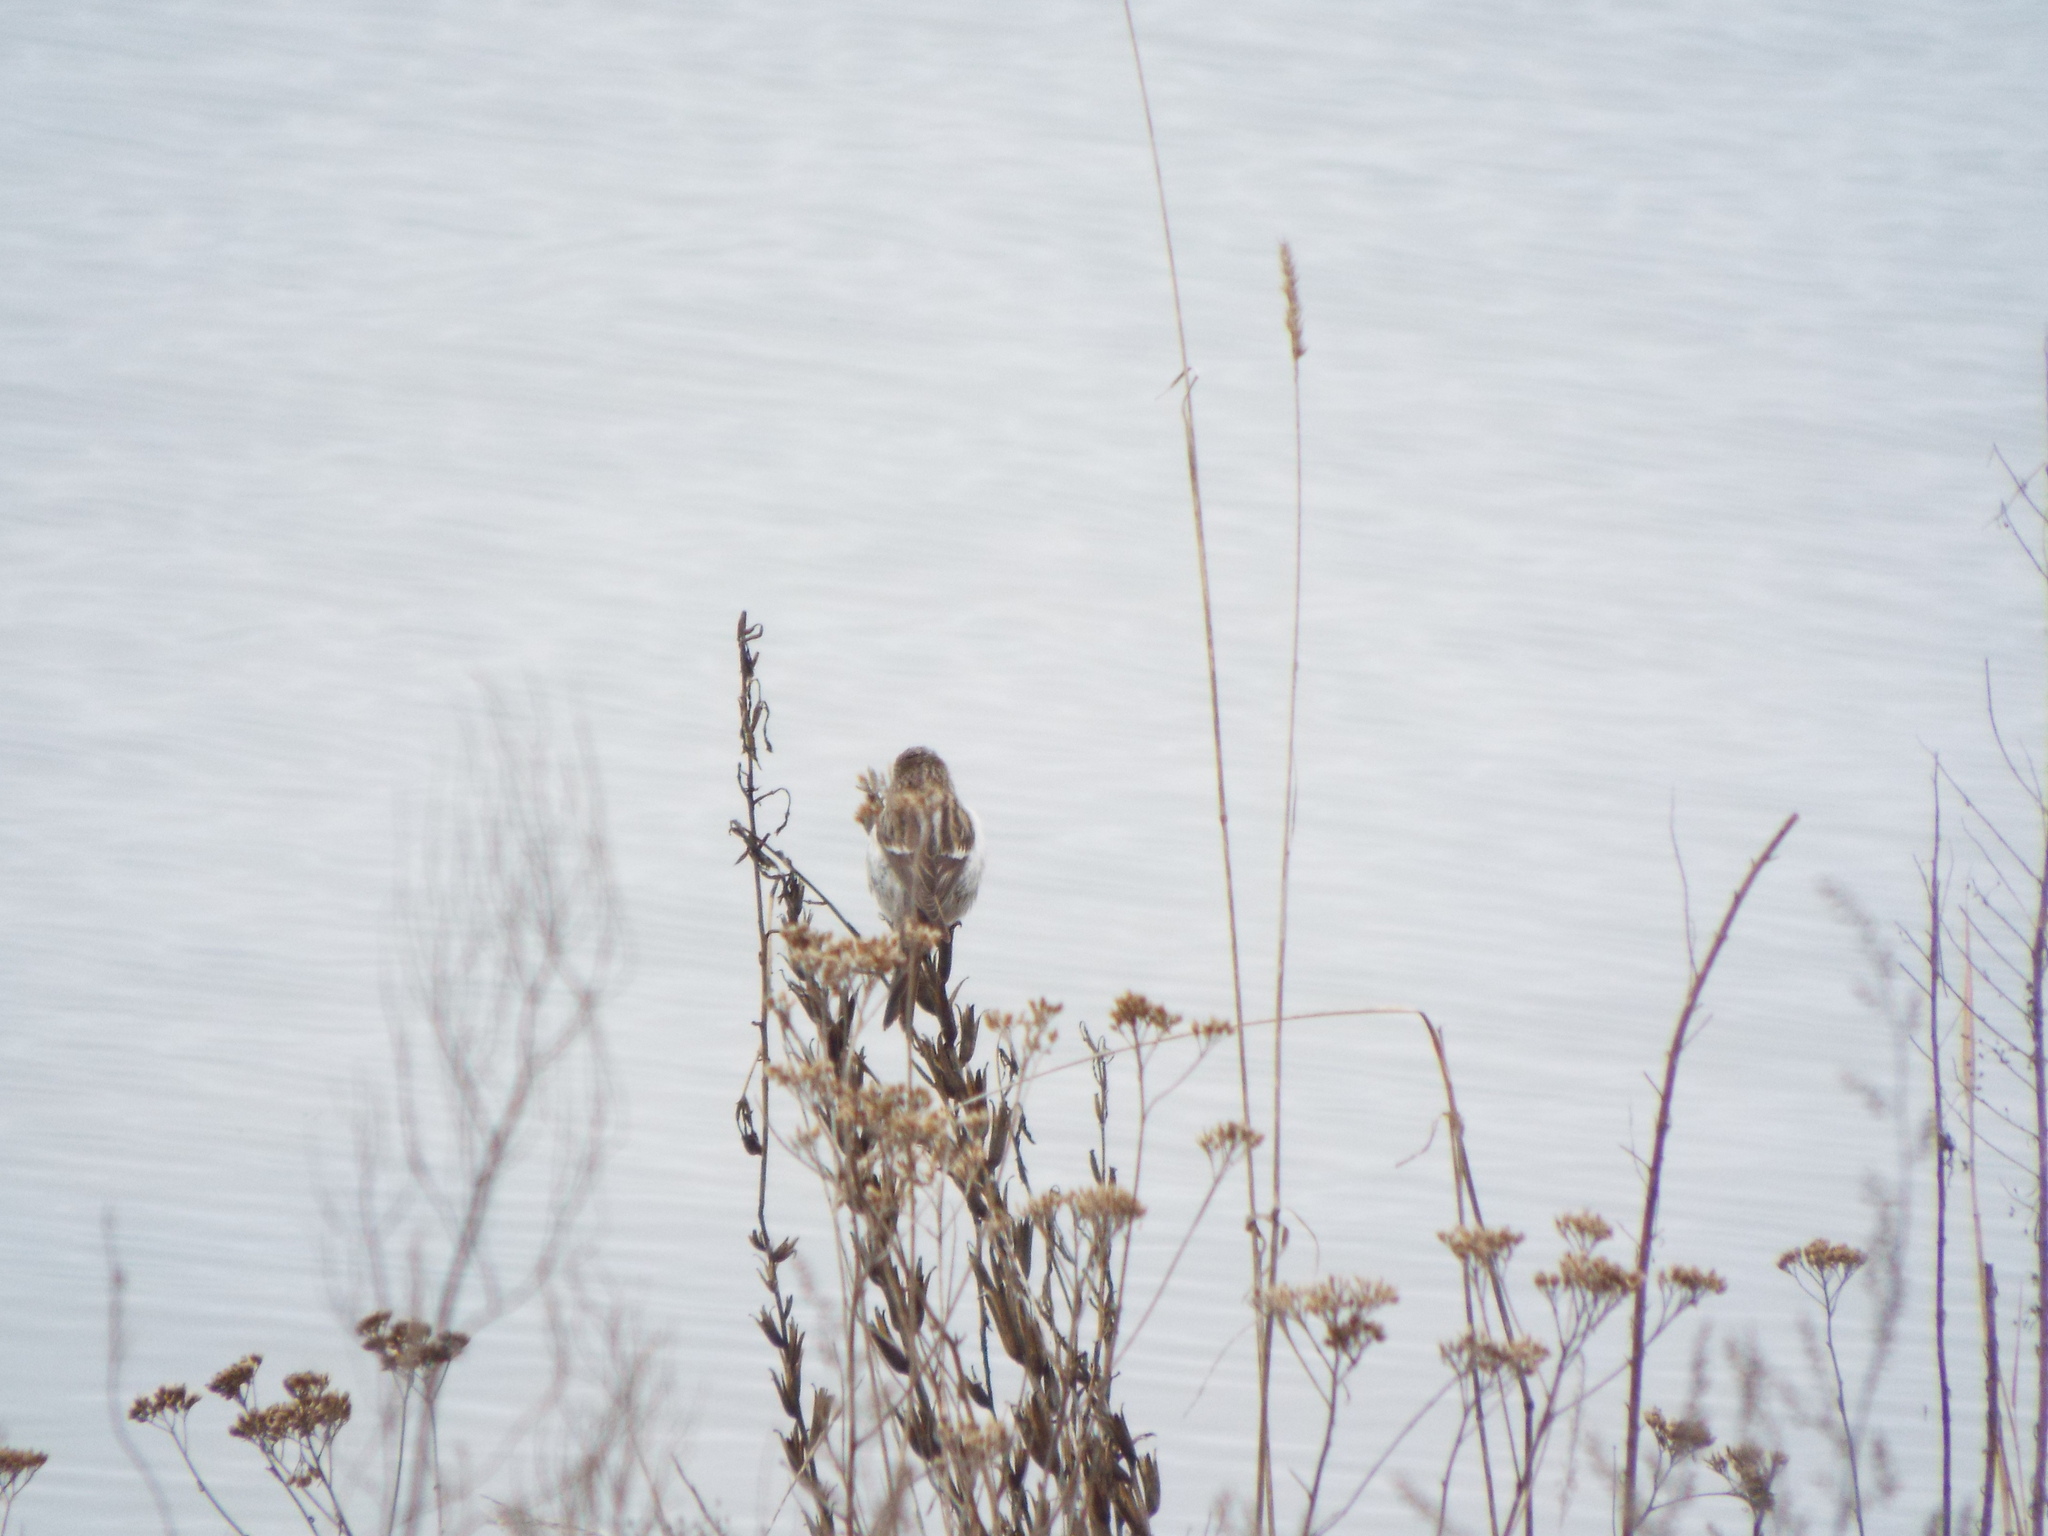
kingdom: Animalia
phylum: Chordata
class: Aves
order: Passeriformes
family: Fringillidae
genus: Acanthis
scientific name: Acanthis flammea
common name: Common redpoll
